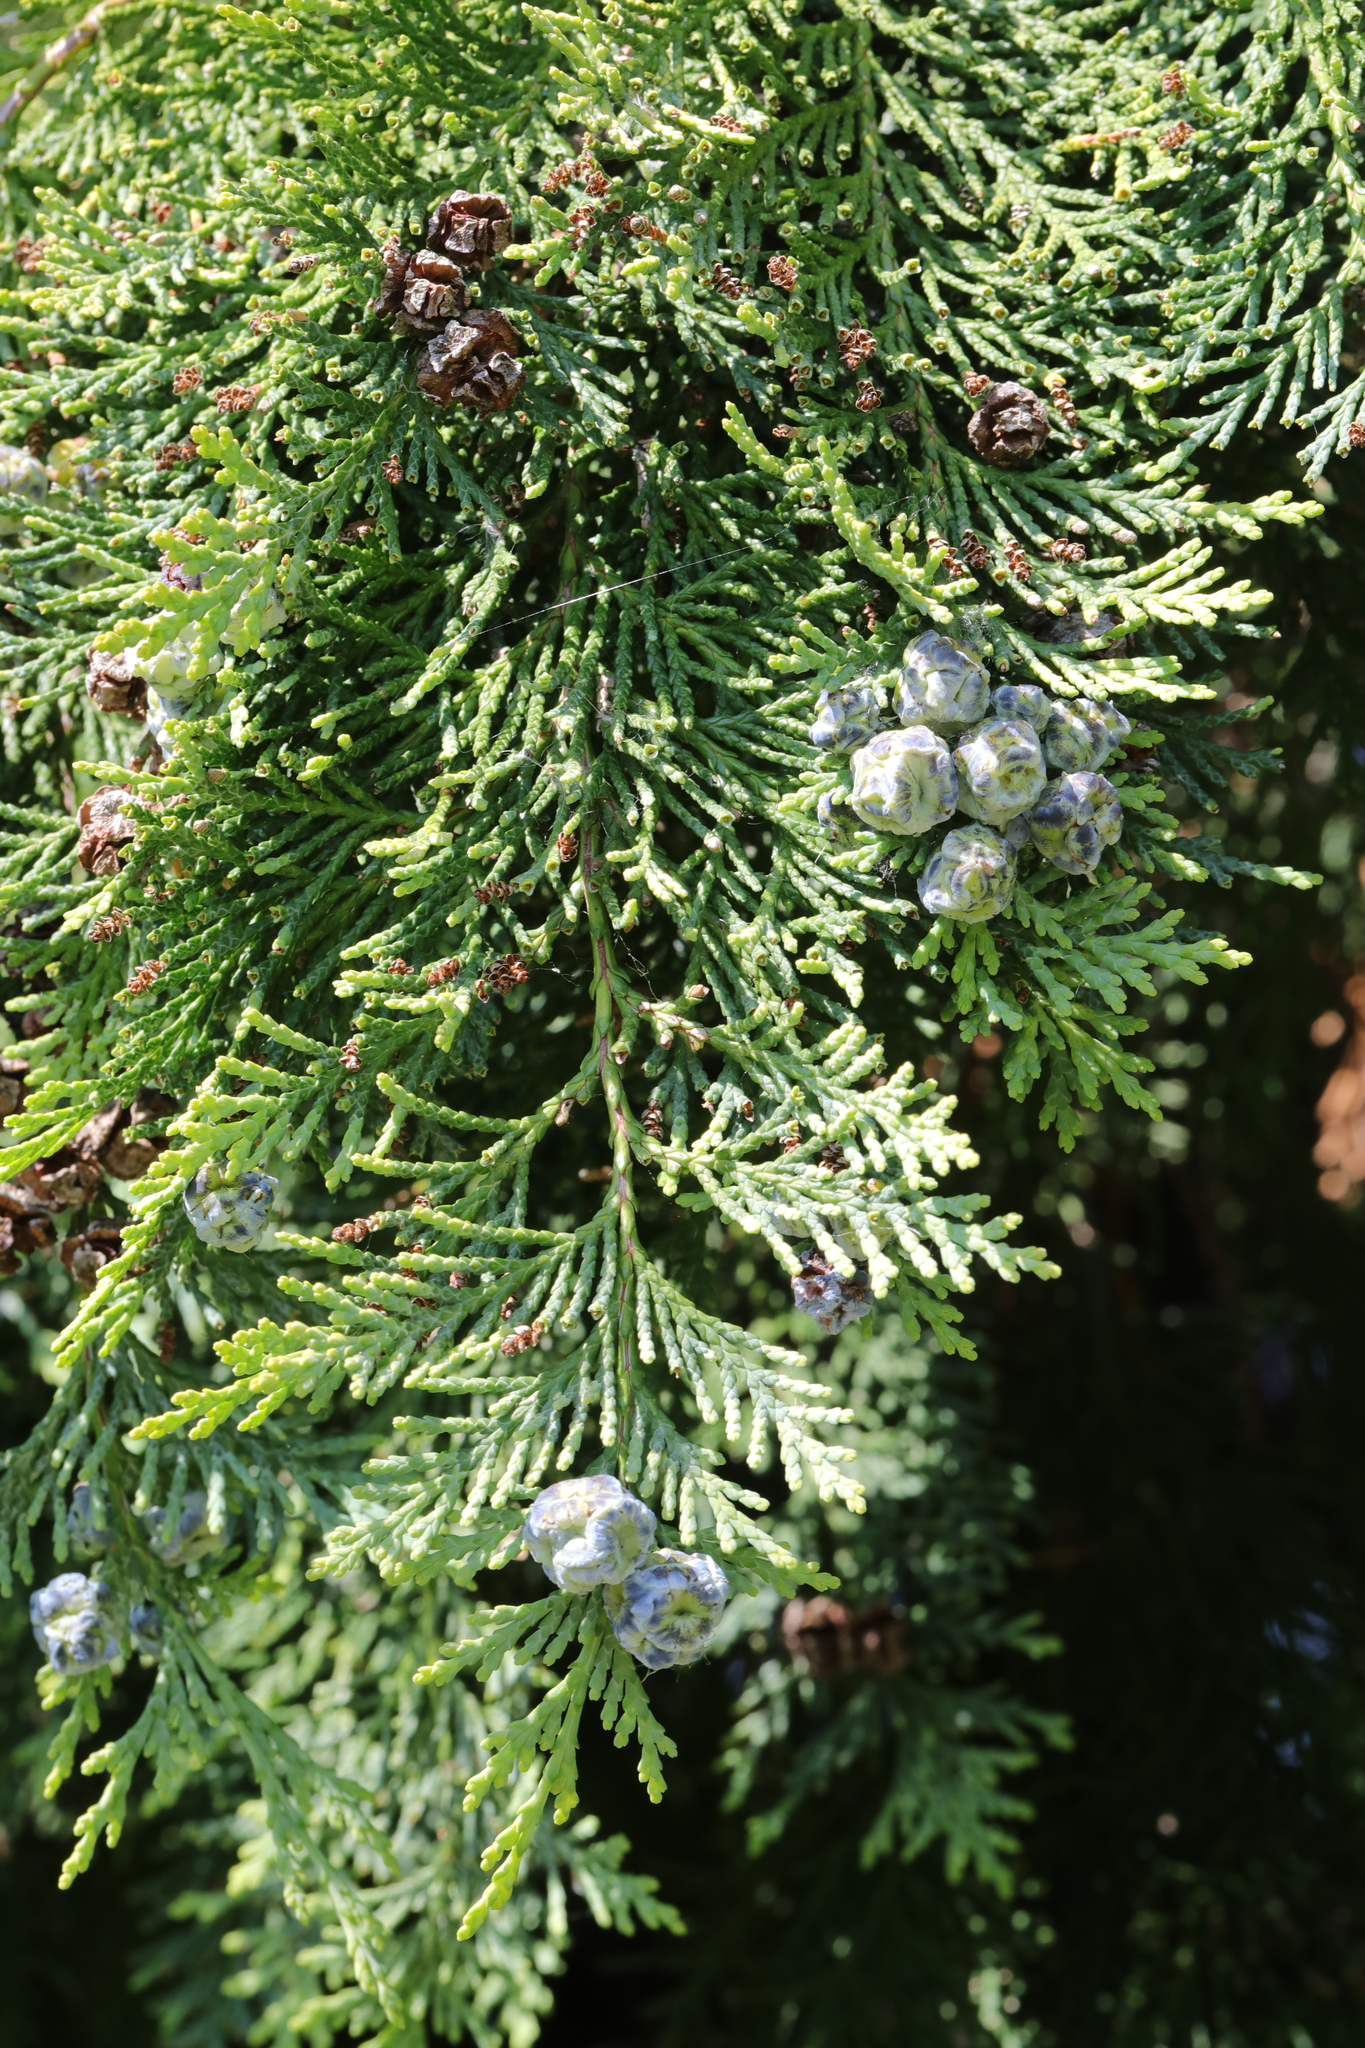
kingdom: Plantae
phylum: Tracheophyta
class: Pinopsida
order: Pinales
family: Cupressaceae
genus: Chamaecyparis
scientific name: Chamaecyparis lawsoniana
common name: Lawson's cypress
